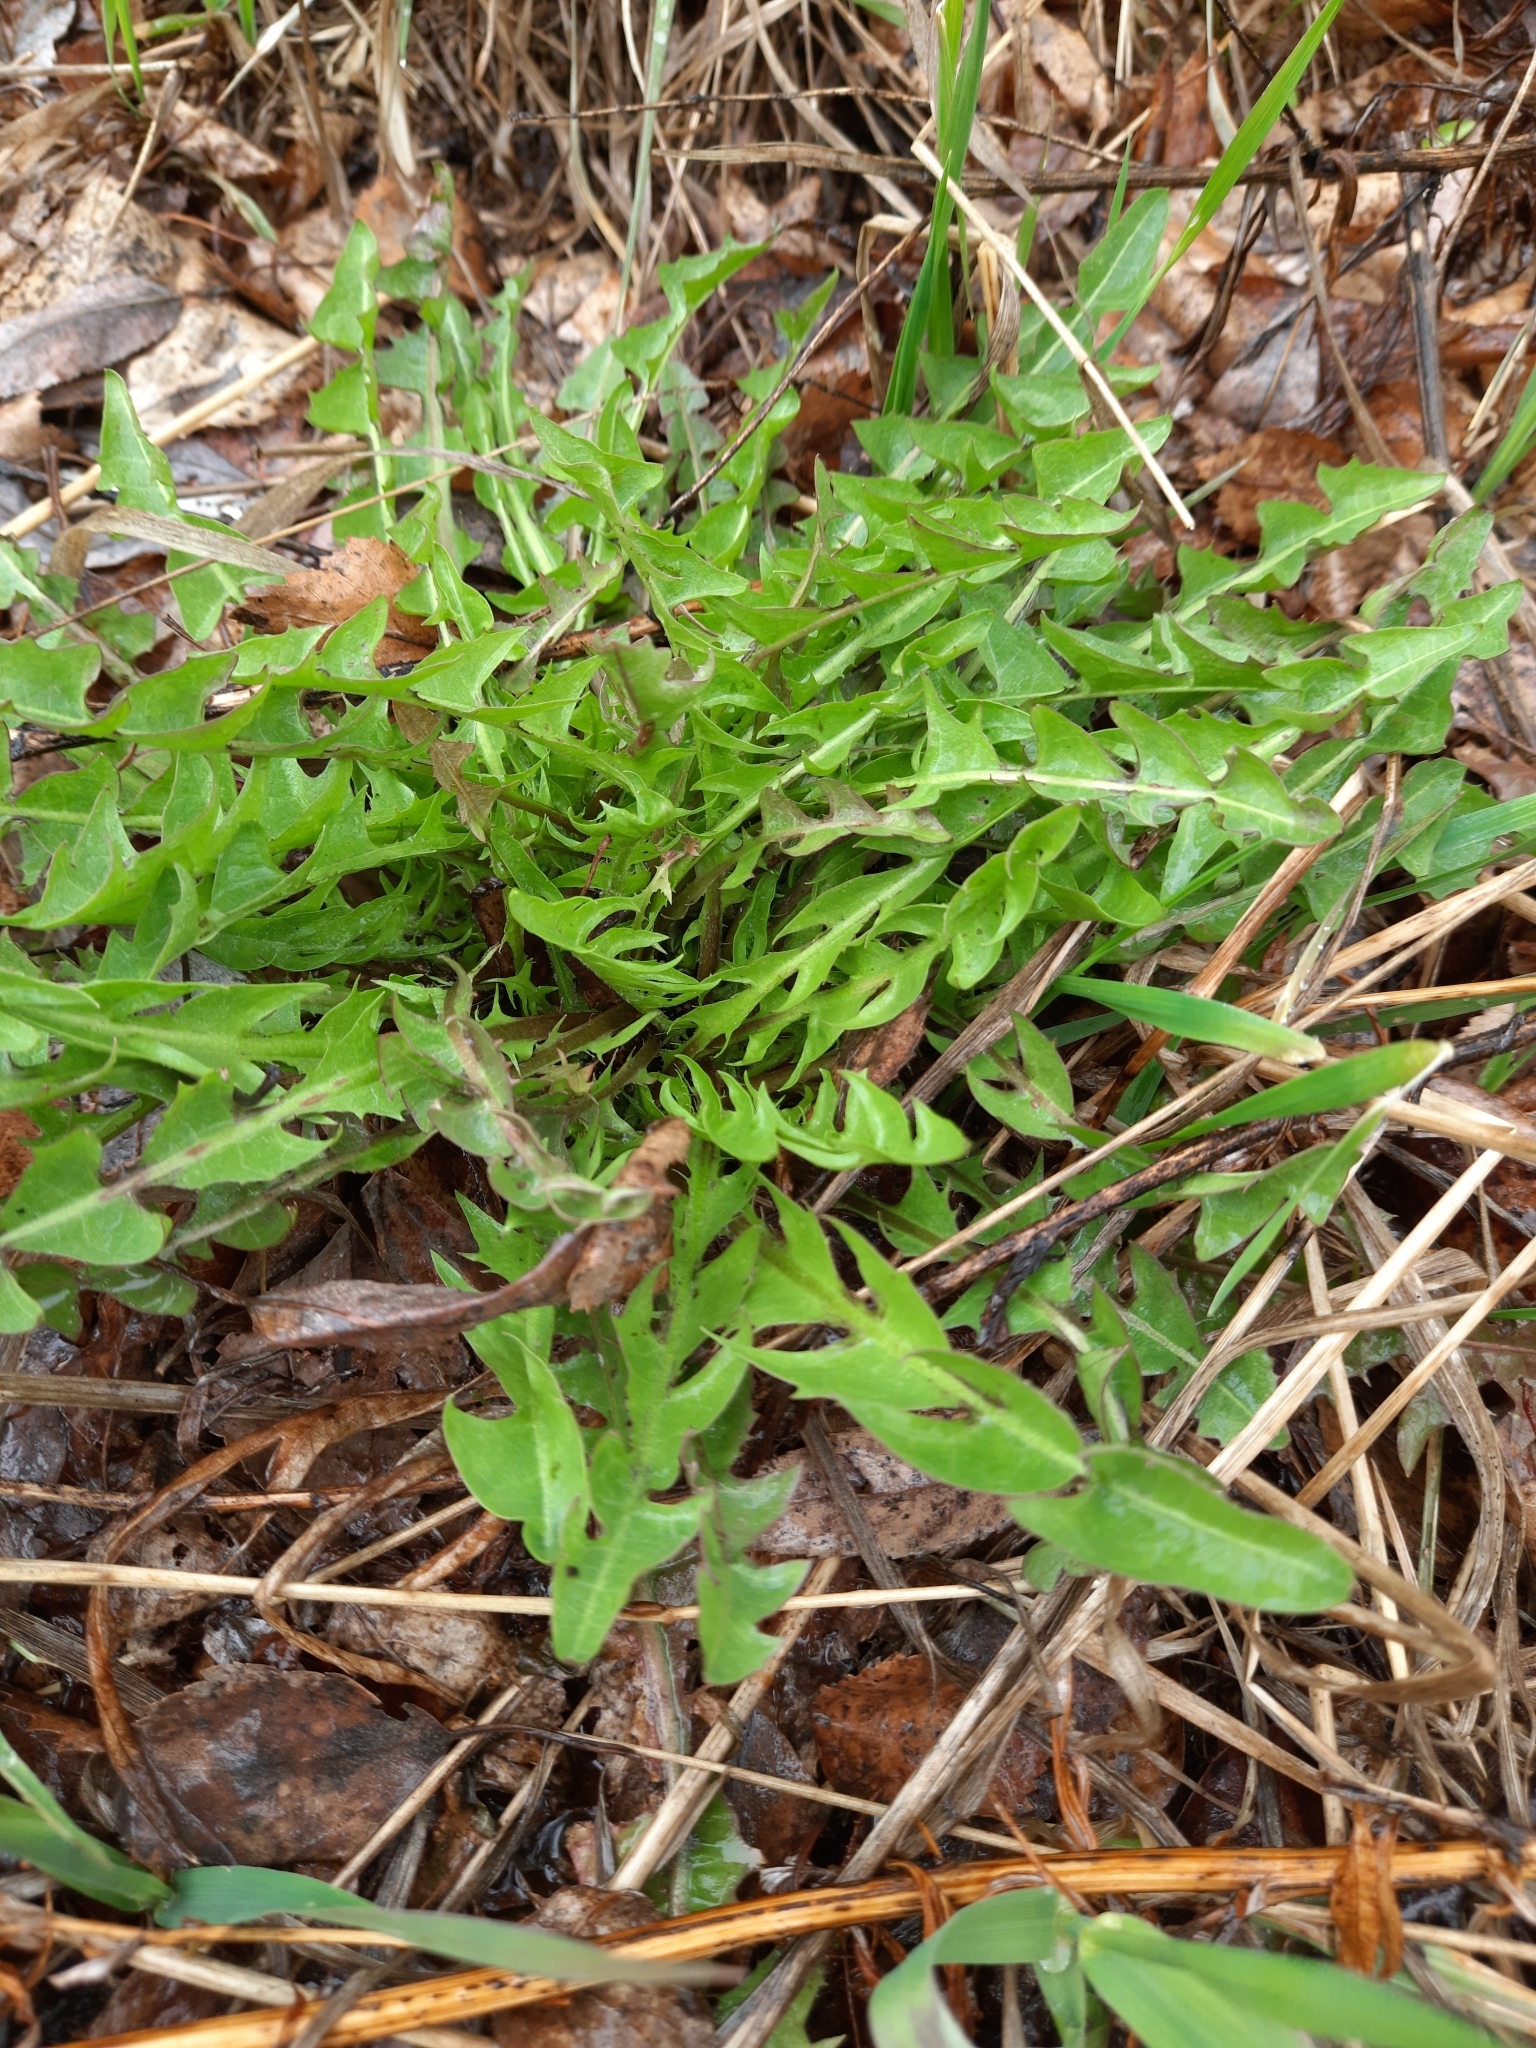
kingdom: Plantae
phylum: Tracheophyta
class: Magnoliopsida
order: Asterales
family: Asteraceae
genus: Taraxacum
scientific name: Taraxacum officinale
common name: Common dandelion
